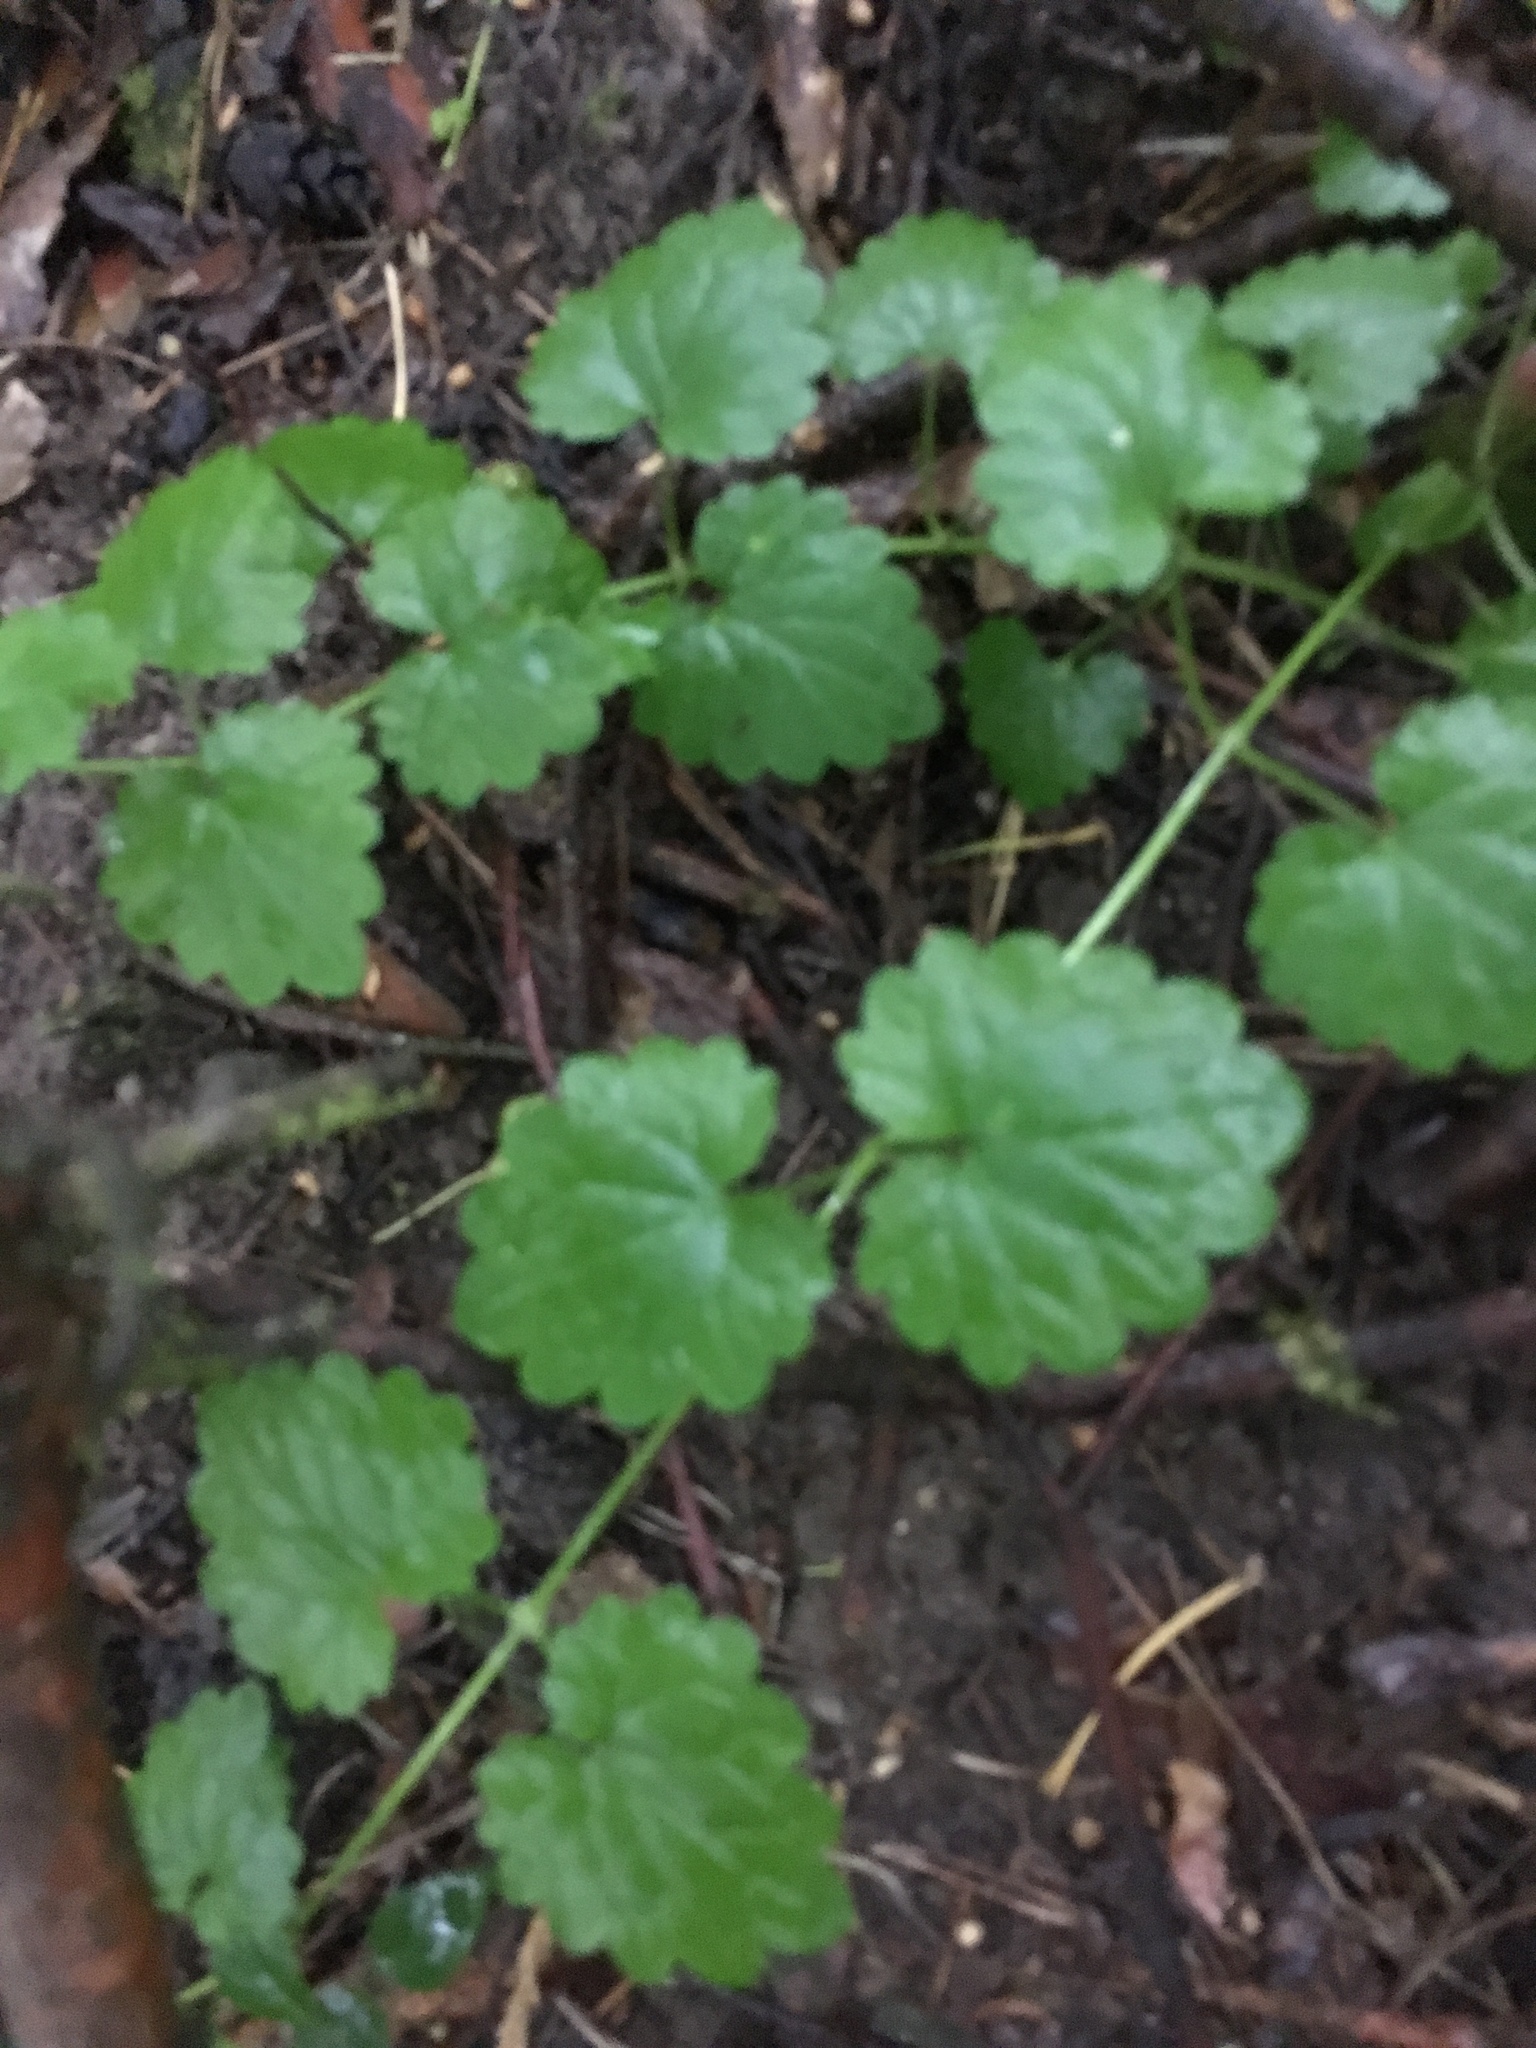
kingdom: Plantae
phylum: Tracheophyta
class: Magnoliopsida
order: Lamiales
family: Lamiaceae
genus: Glechoma
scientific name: Glechoma hederacea
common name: Ground ivy
